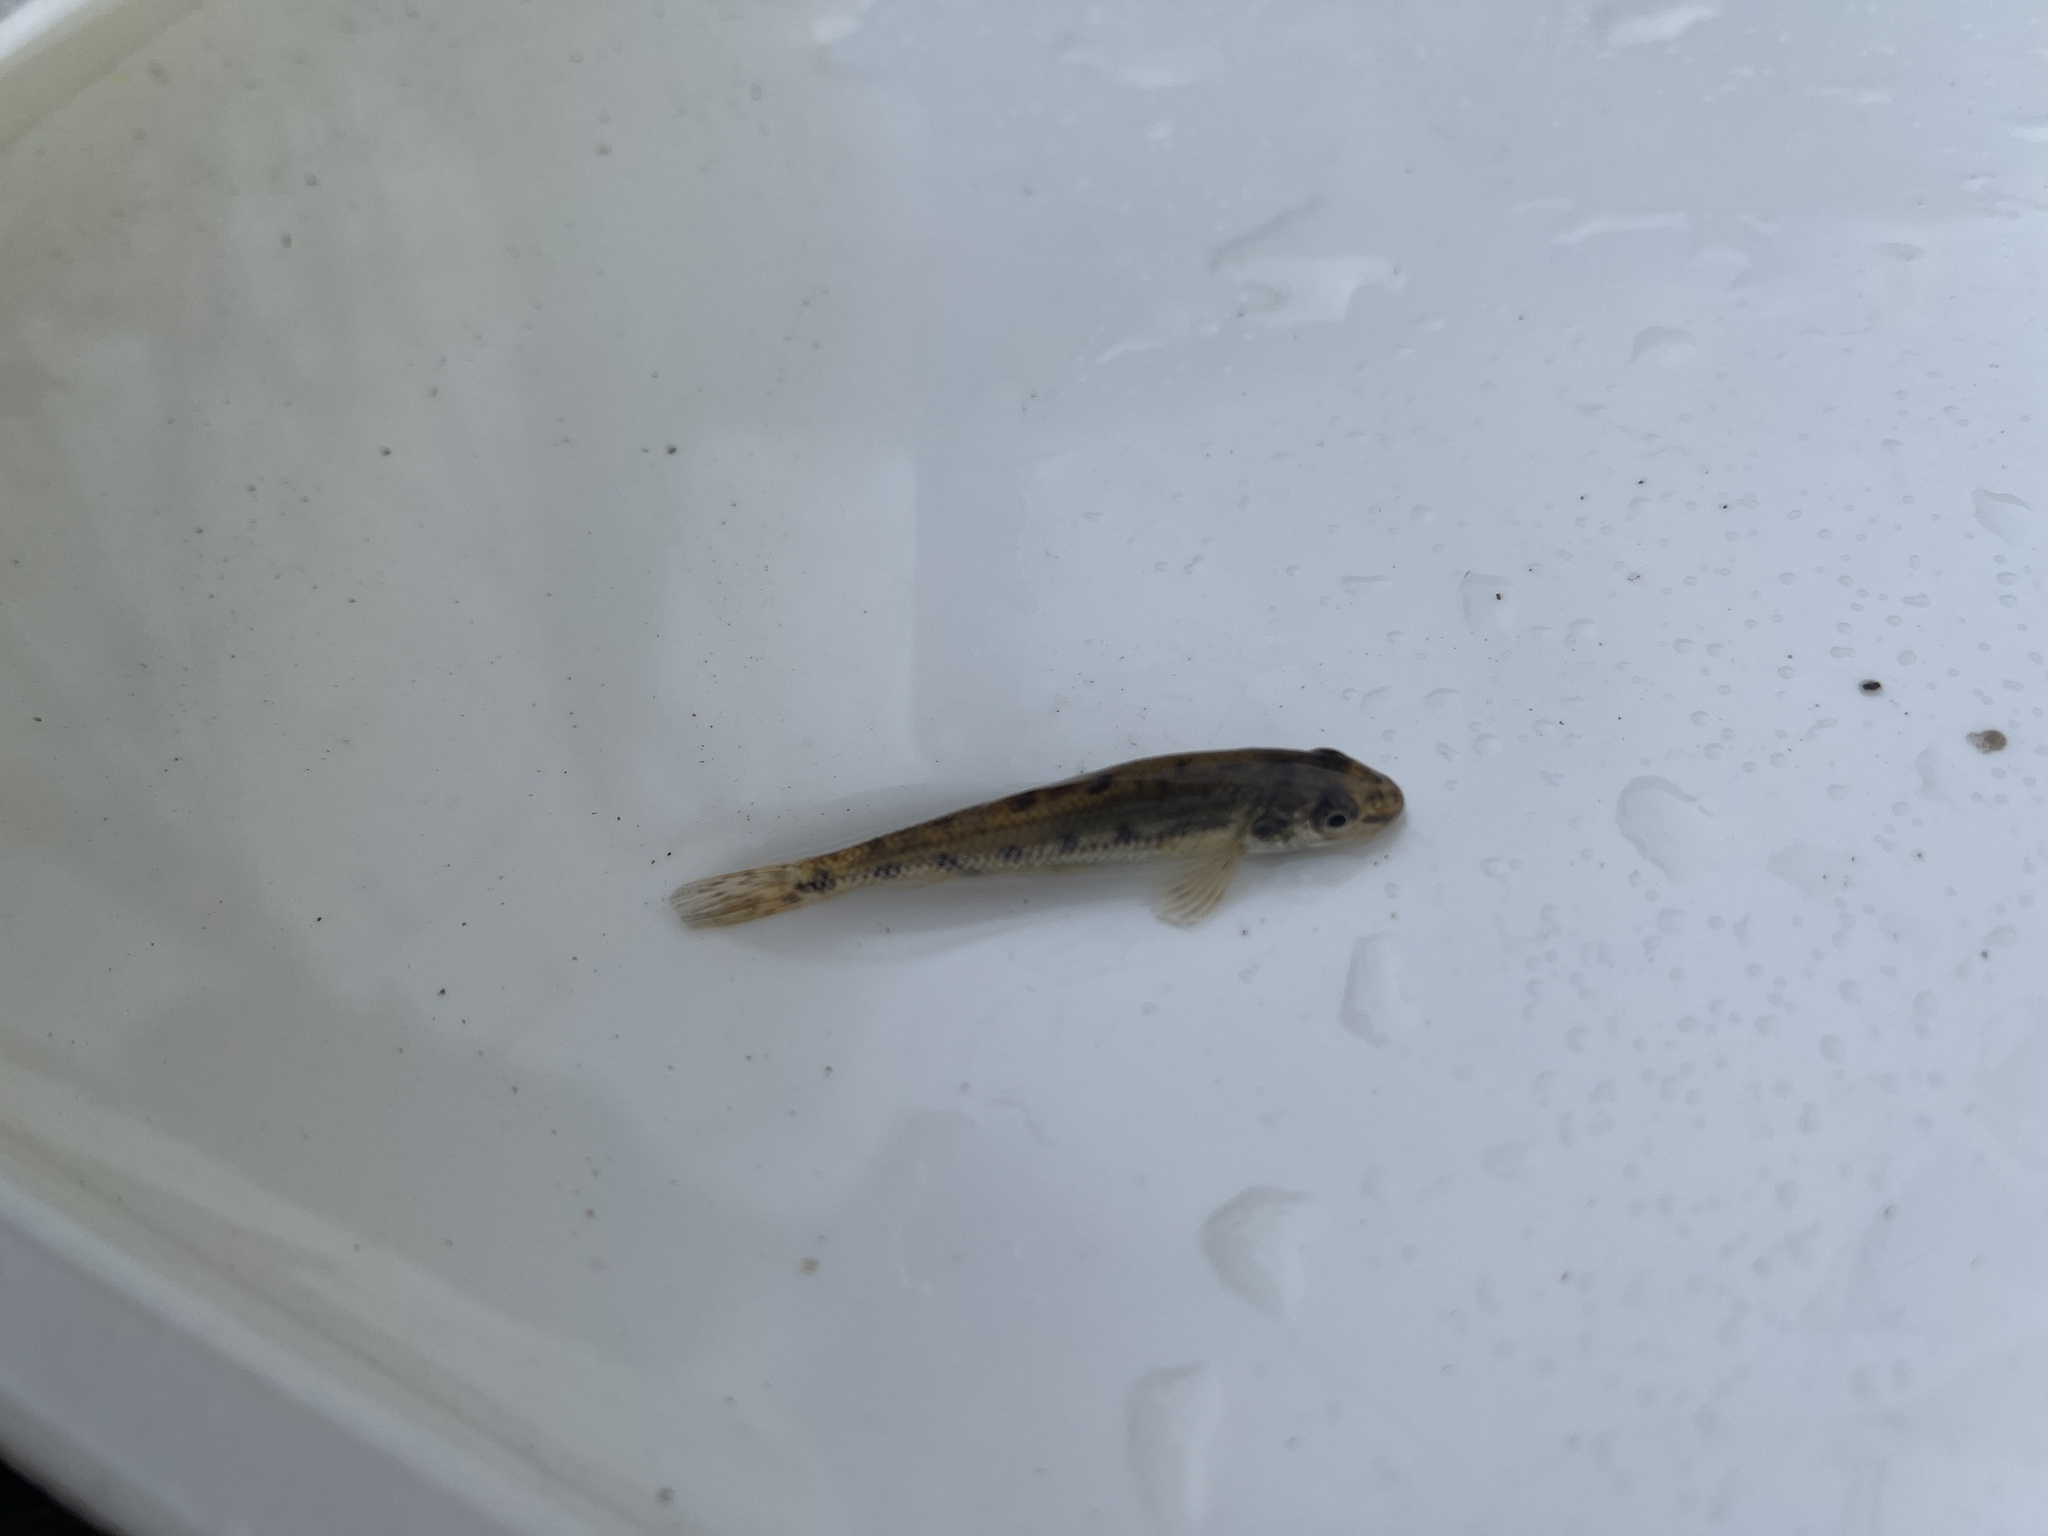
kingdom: Animalia
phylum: Chordata
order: Cypriniformes
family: Cyprinidae
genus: Gobio
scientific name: Gobio gobio
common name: Gudgeon
